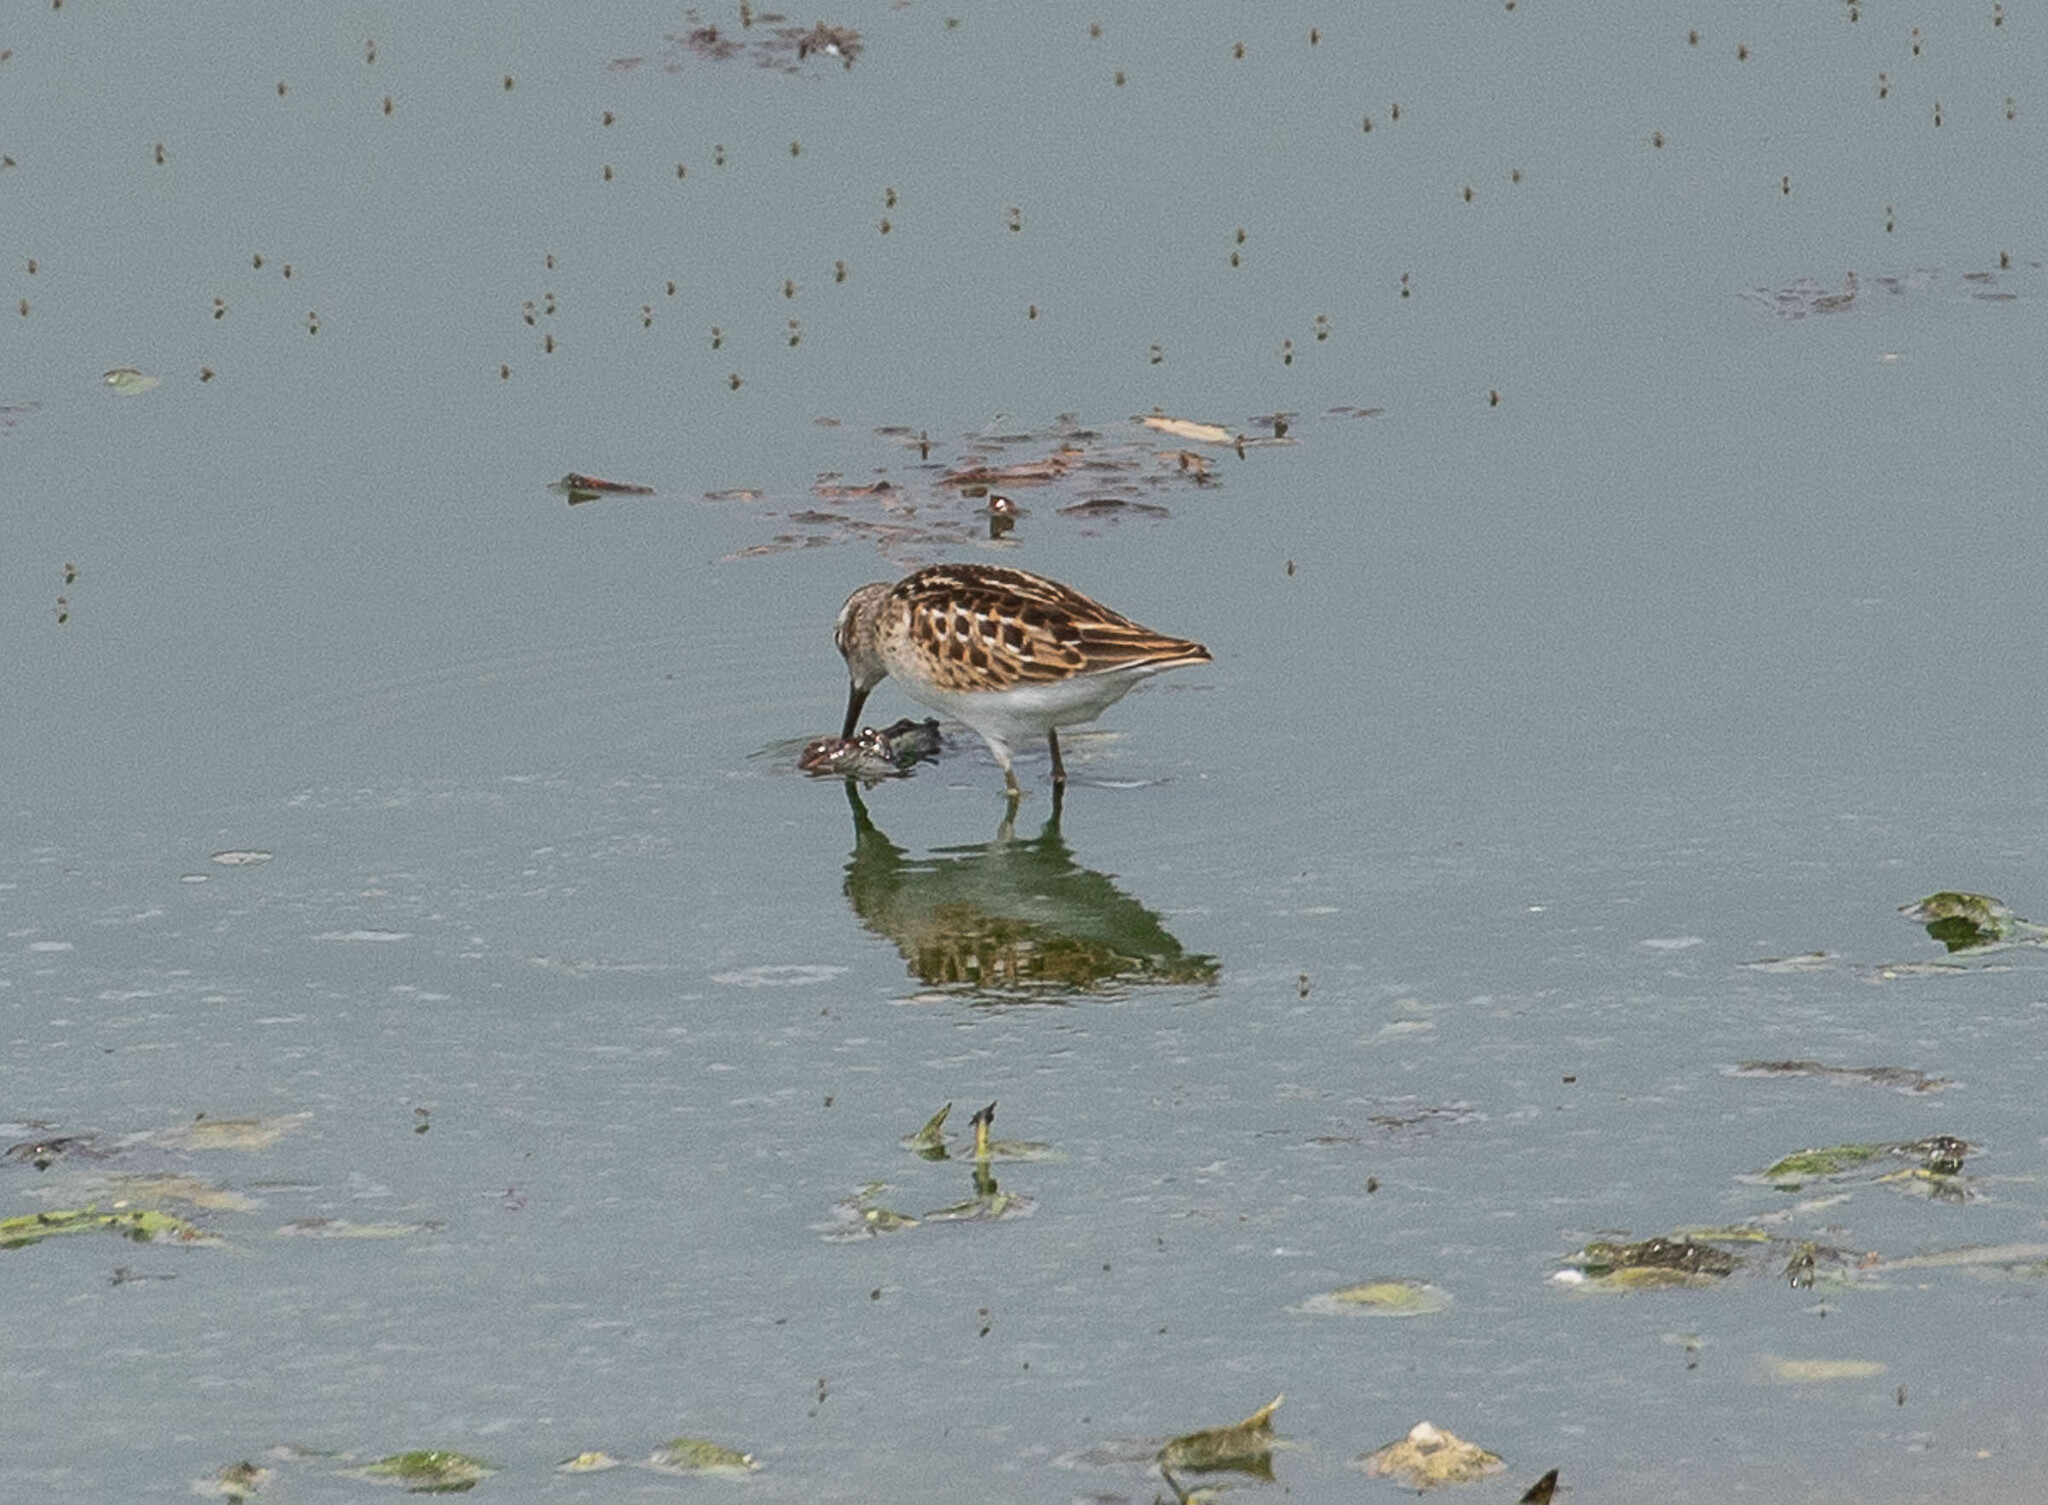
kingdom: Animalia
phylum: Chordata
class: Aves
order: Charadriiformes
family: Scolopacidae
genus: Calidris
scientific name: Calidris minutilla
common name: Least sandpiper
